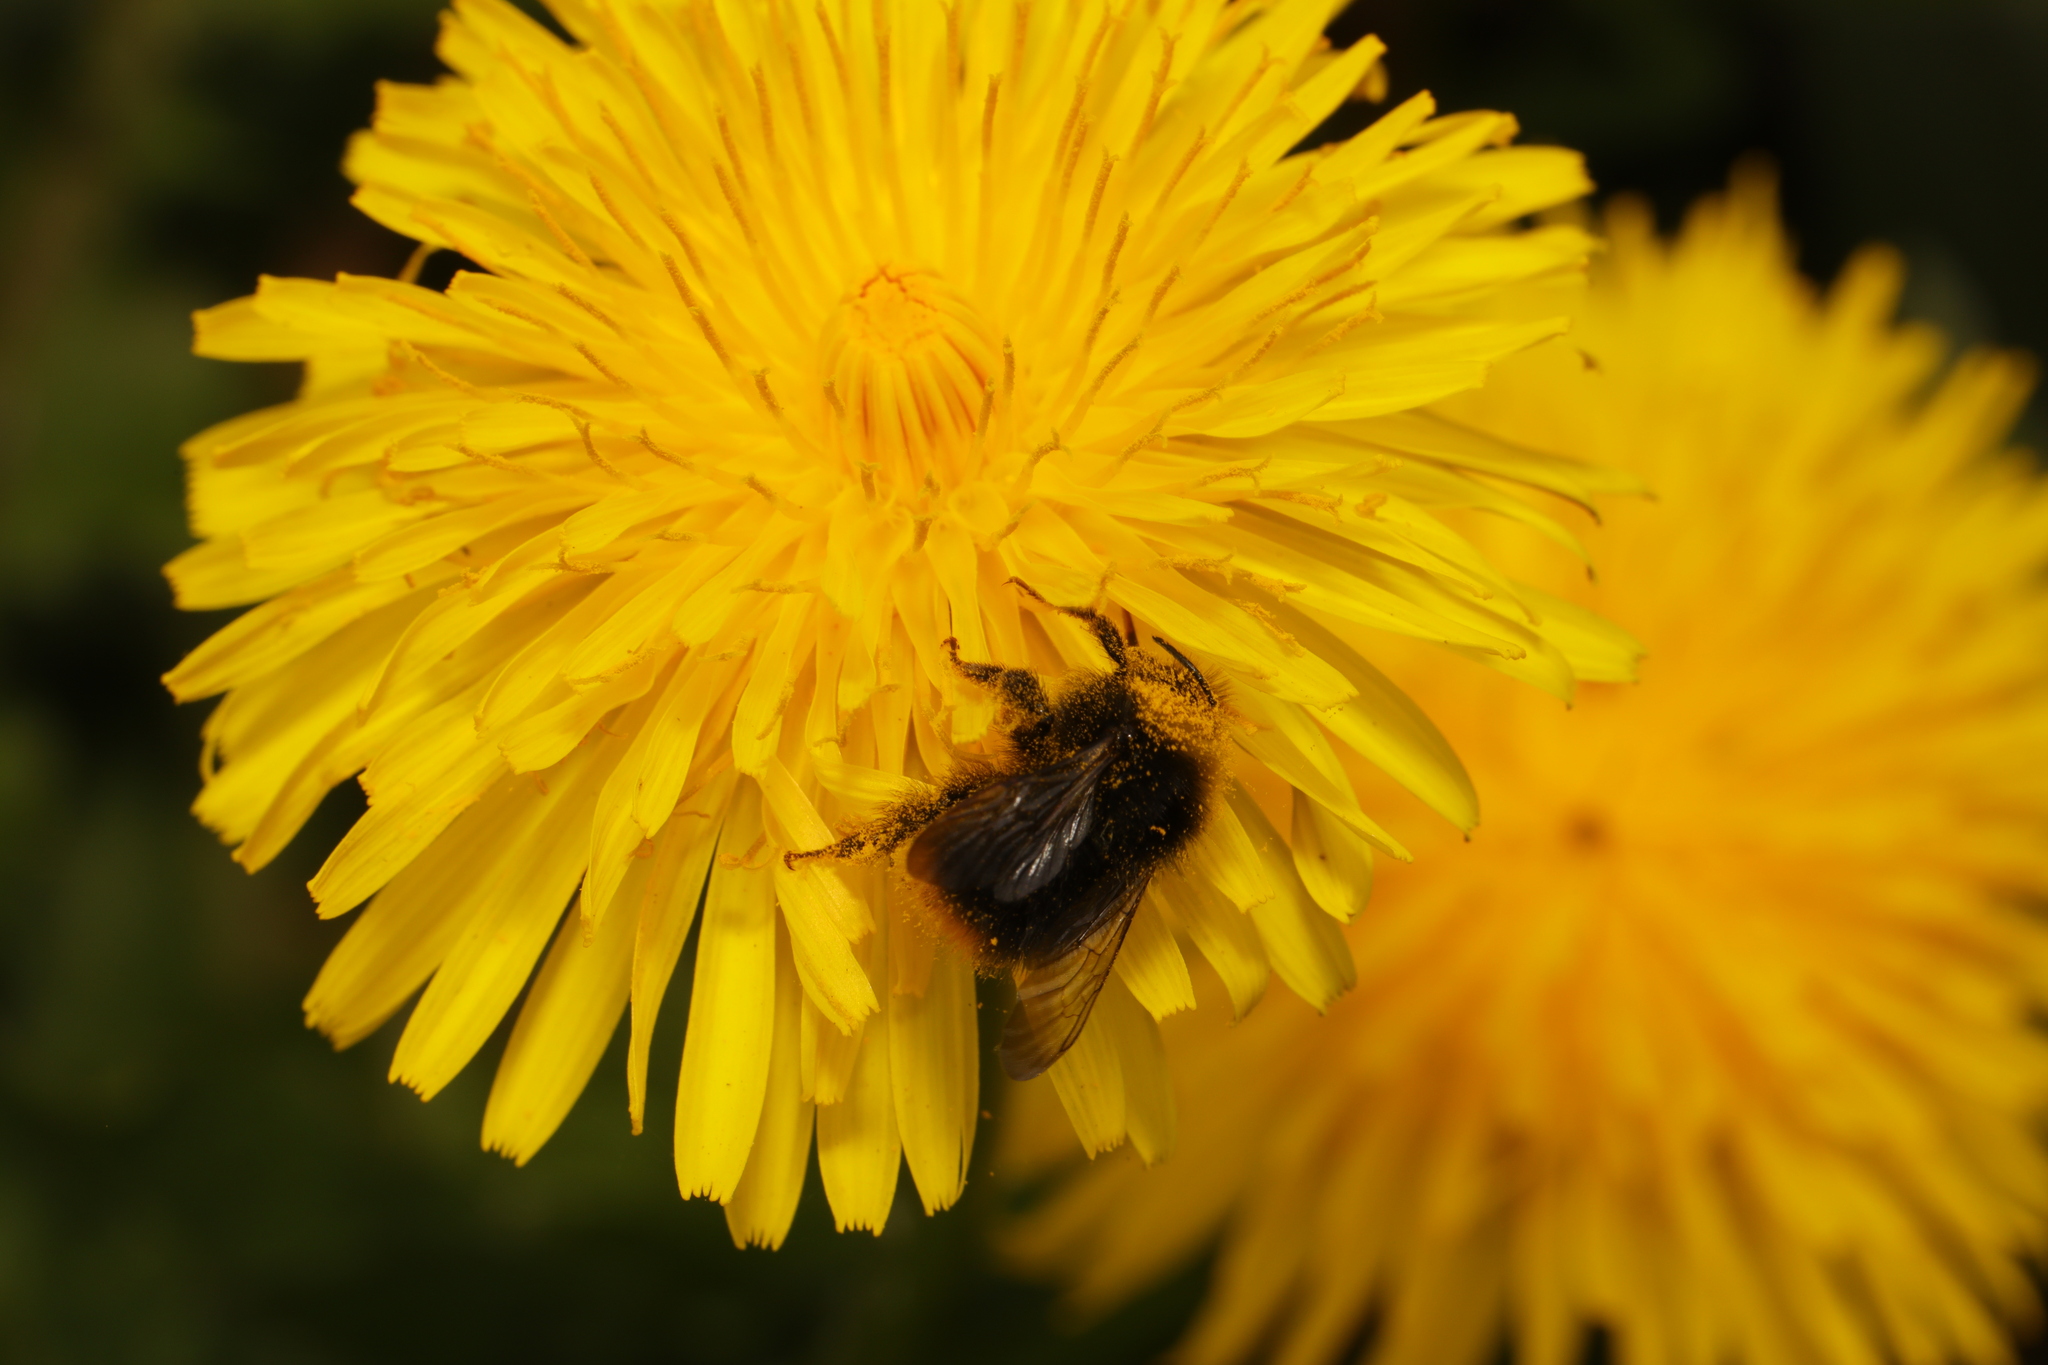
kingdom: Animalia
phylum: Arthropoda
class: Insecta
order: Hymenoptera
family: Apidae
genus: Bombus
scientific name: Bombus pratorum
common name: Early humble-bee
